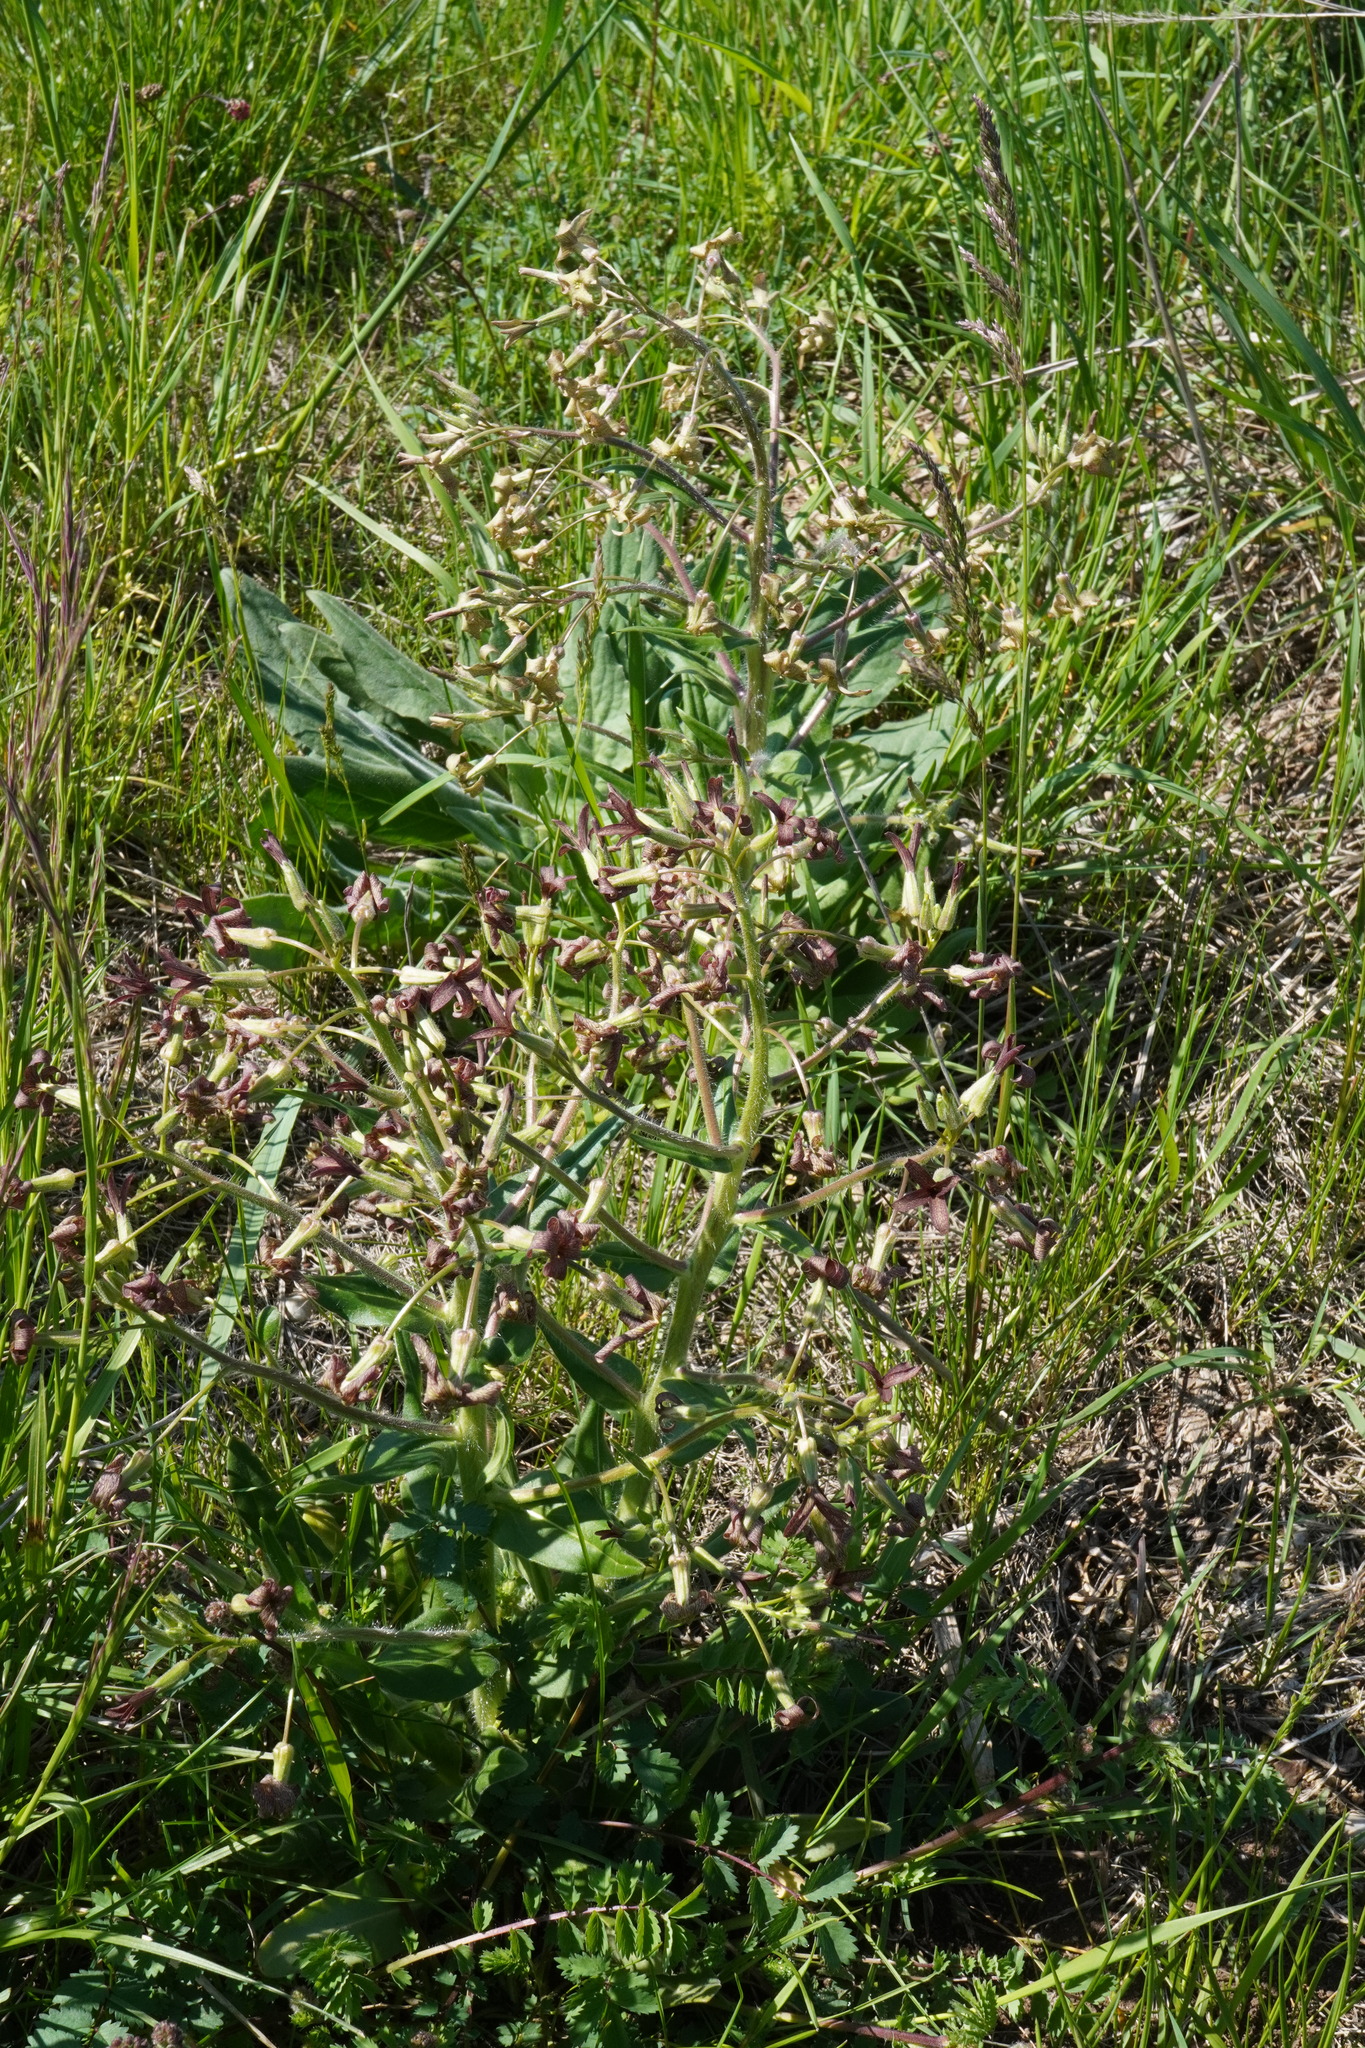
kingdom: Plantae
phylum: Tracheophyta
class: Magnoliopsida
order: Brassicales
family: Brassicaceae
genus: Hesperis
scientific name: Hesperis tristis
